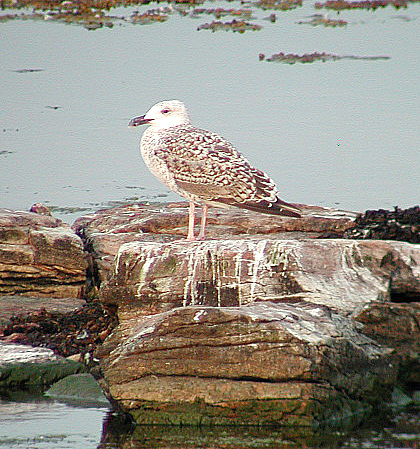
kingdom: Animalia
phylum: Chordata
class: Aves
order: Charadriiformes
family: Laridae
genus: Larus
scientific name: Larus marinus
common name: Great black-backed gull
